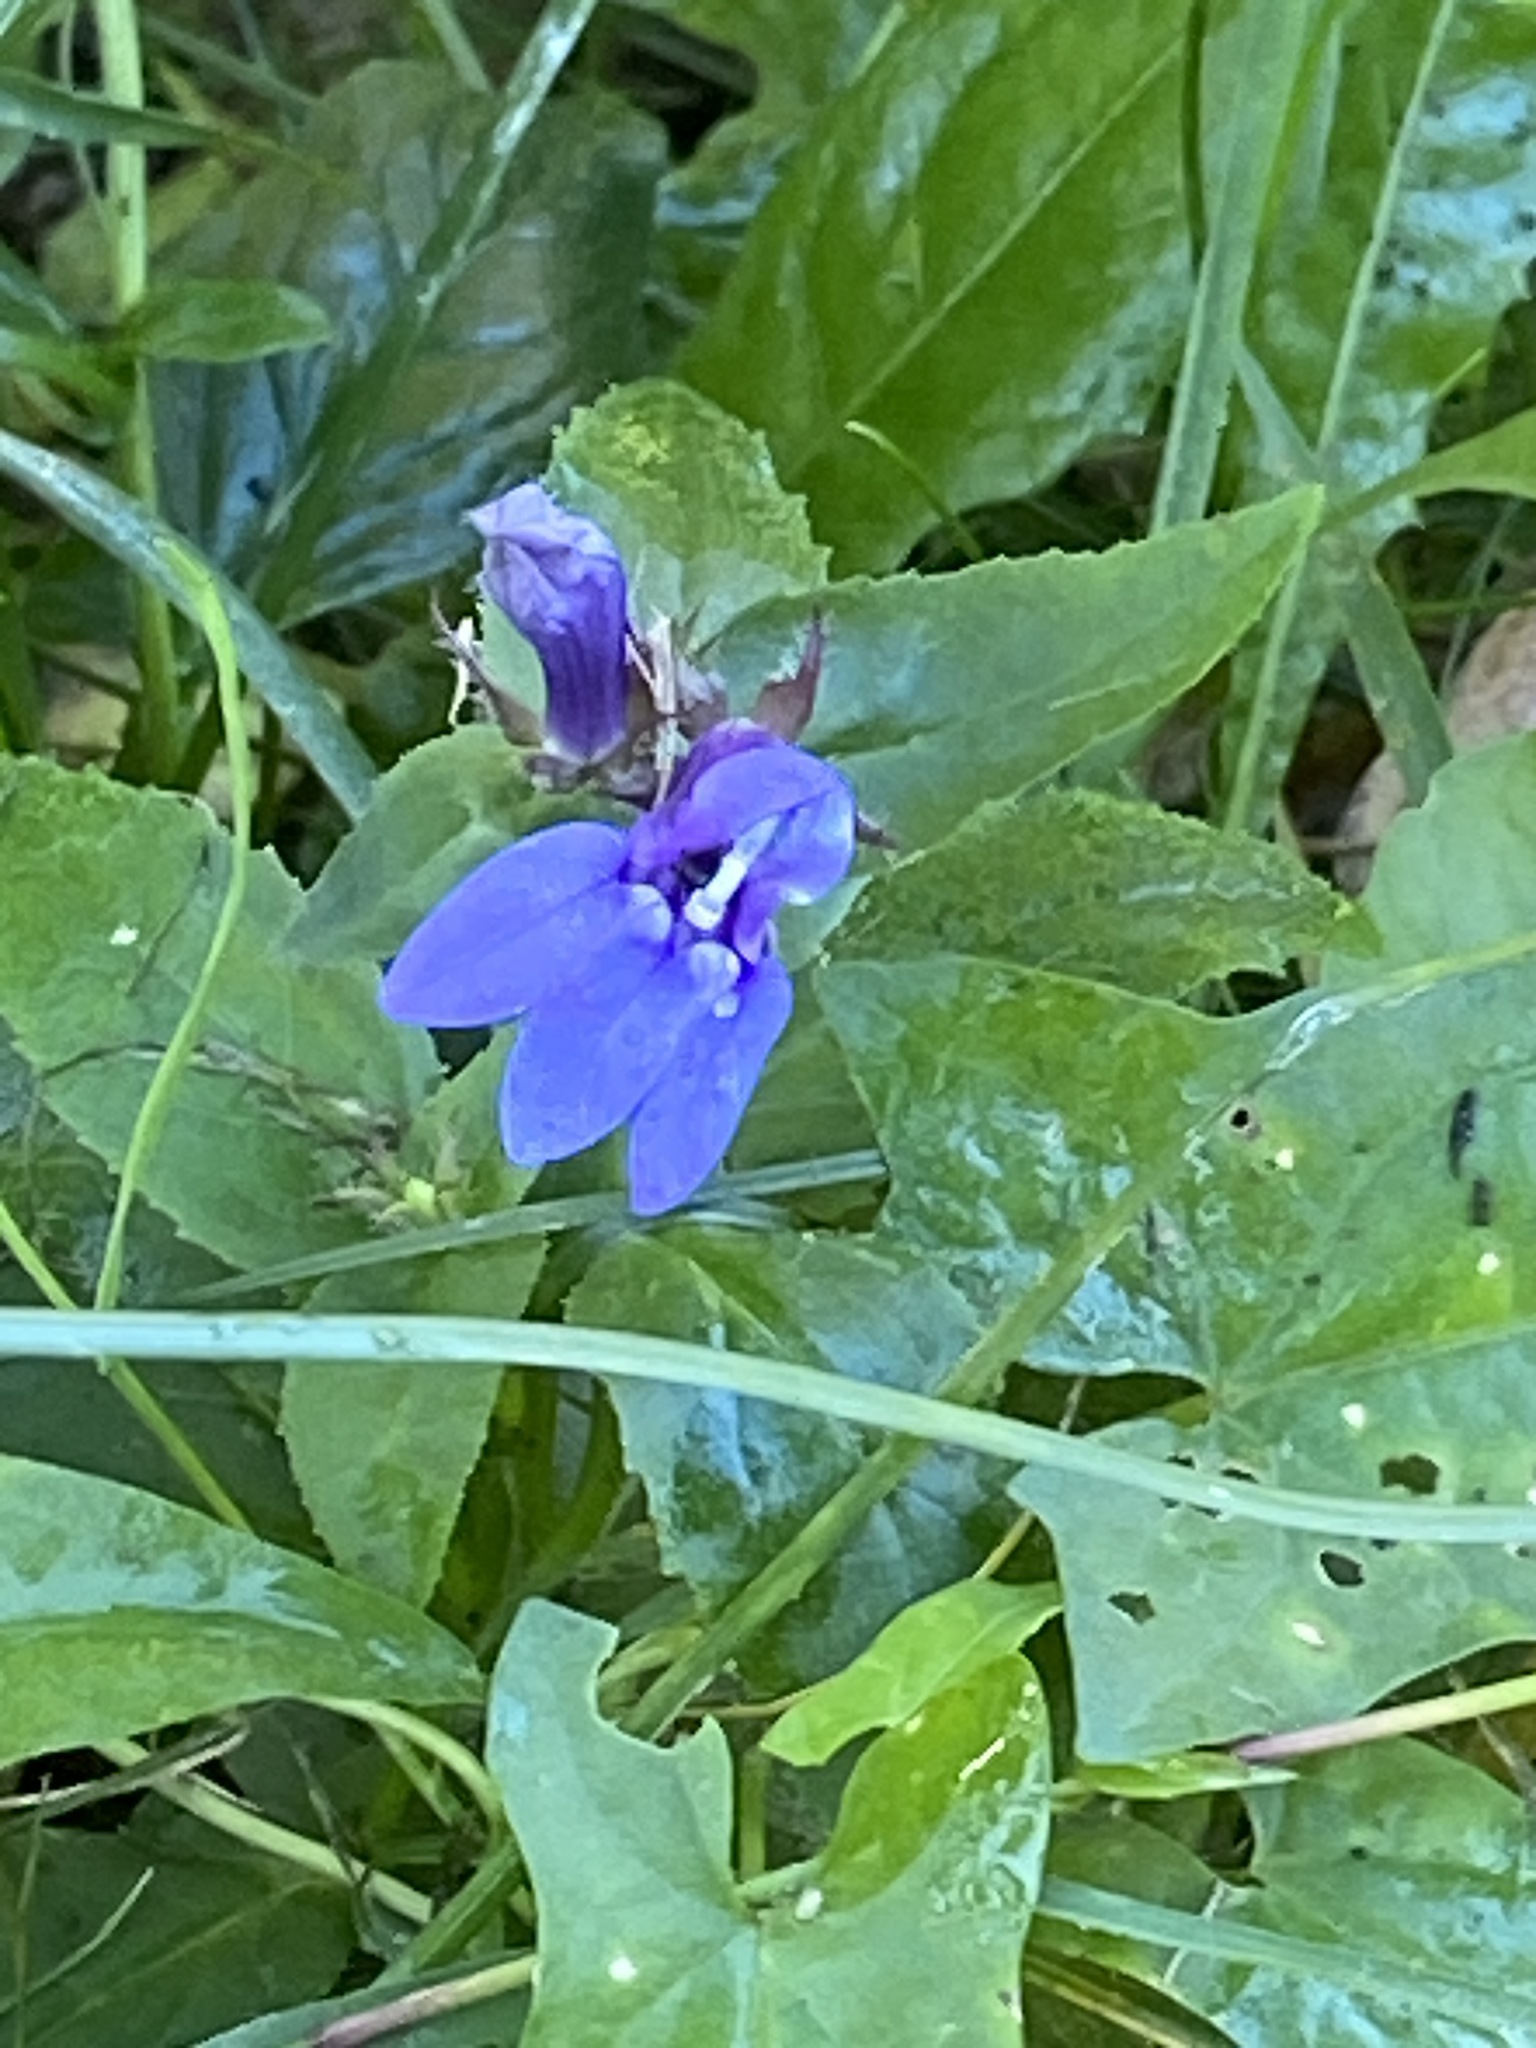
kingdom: Plantae
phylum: Tracheophyta
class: Magnoliopsida
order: Asterales
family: Campanulaceae
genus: Lobelia
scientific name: Lobelia siphilitica
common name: Great lobelia
